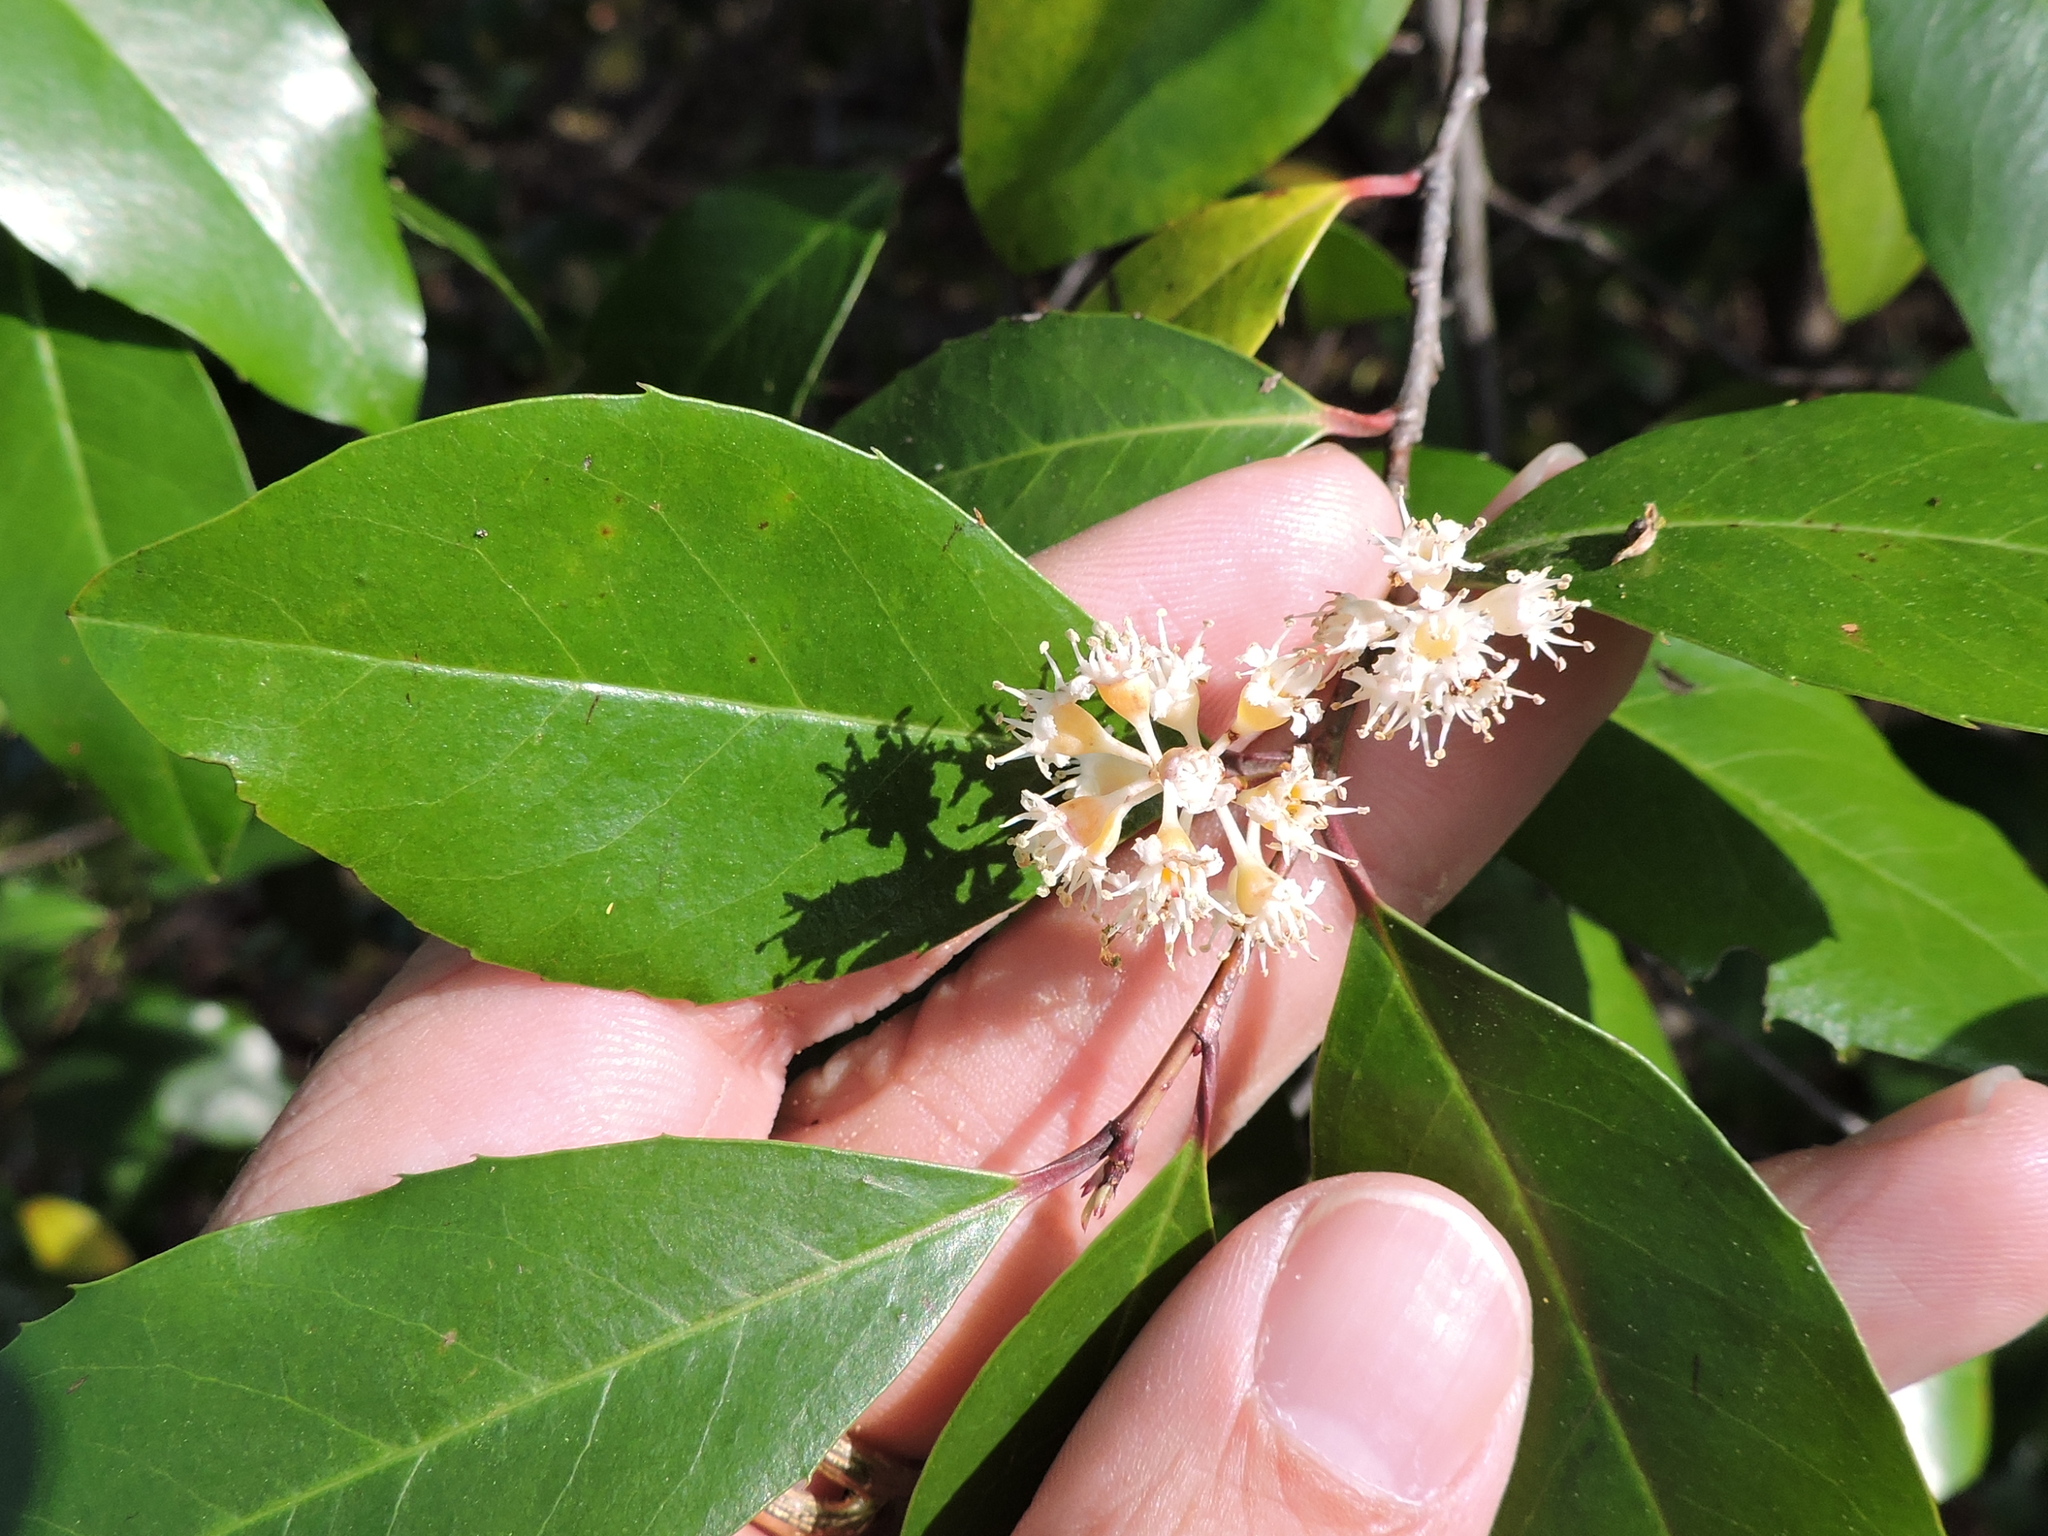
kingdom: Plantae
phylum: Tracheophyta
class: Magnoliopsida
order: Rosales
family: Rosaceae
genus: Prunus
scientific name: Prunus caroliniana
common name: Carolina laurel cherry
